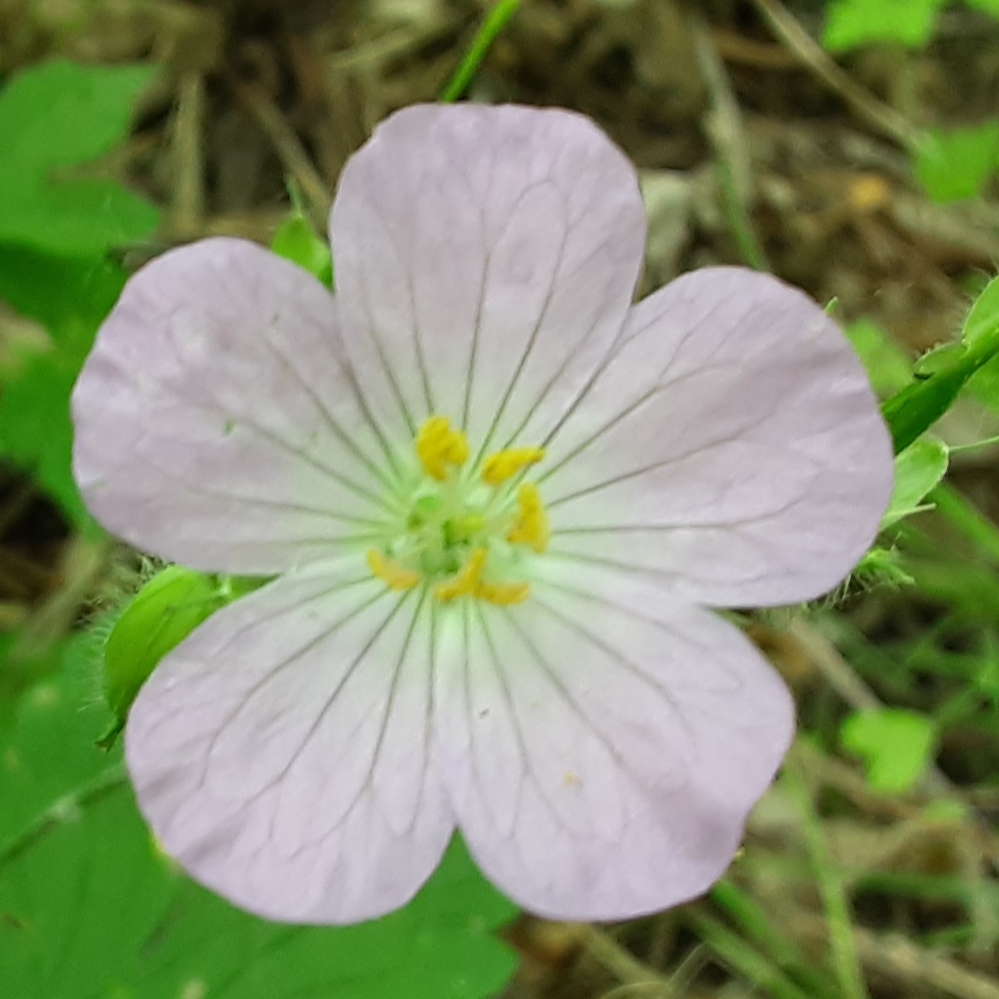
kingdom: Plantae
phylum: Tracheophyta
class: Magnoliopsida
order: Geraniales
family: Geraniaceae
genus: Geranium
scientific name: Geranium maculatum
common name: Spotted geranium
